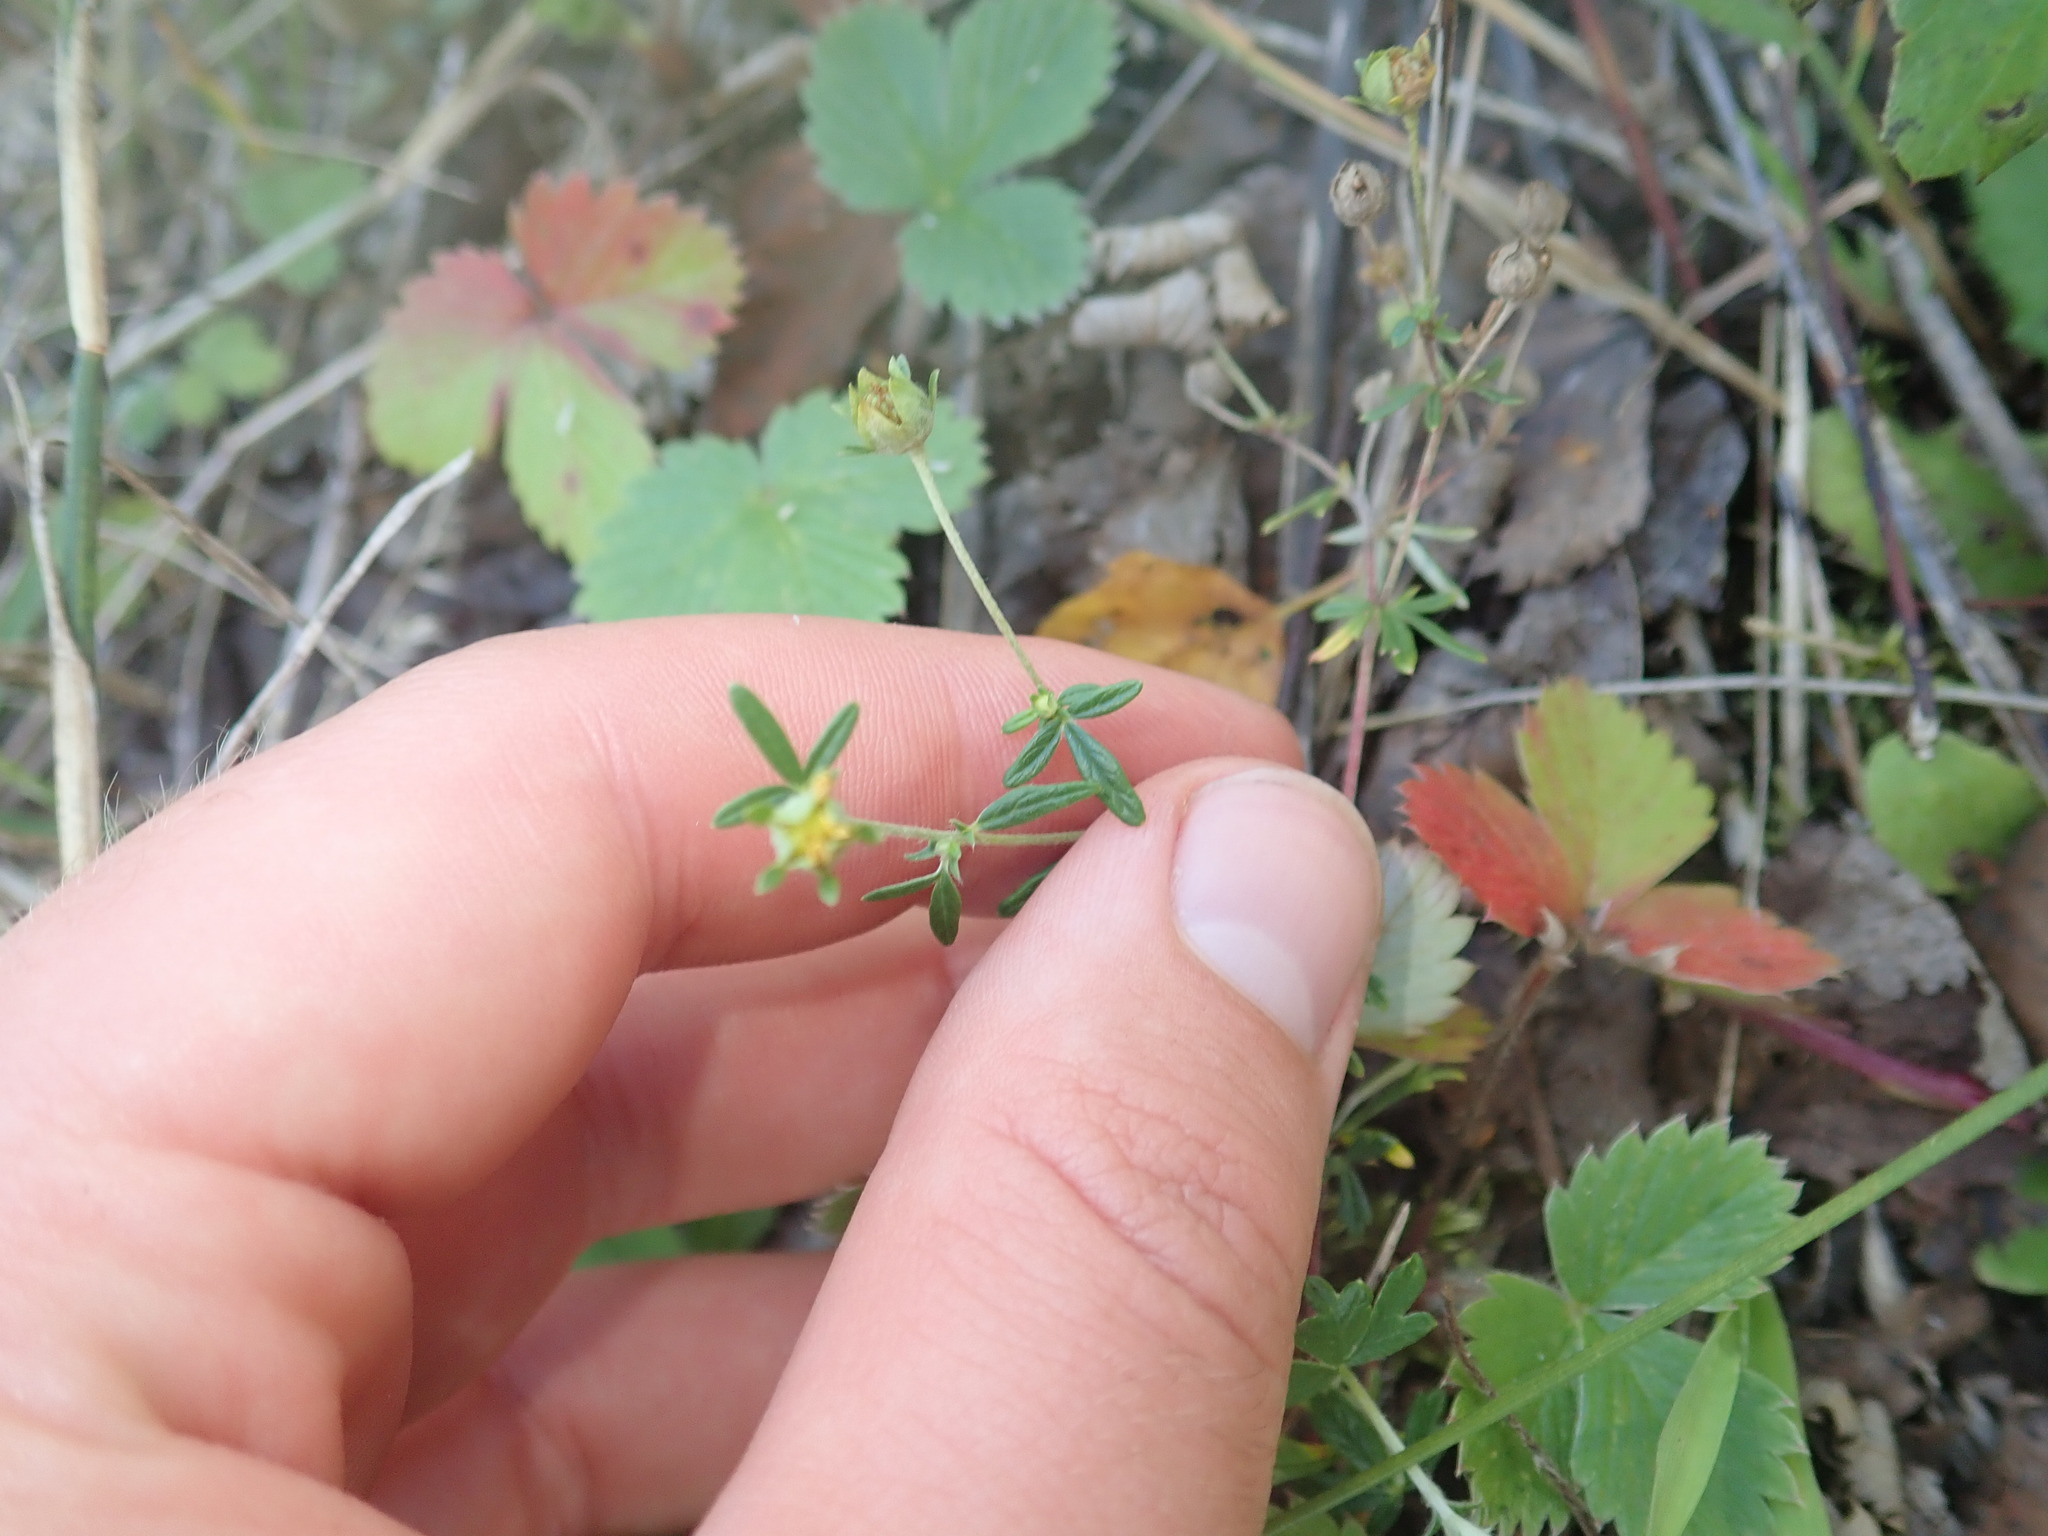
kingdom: Plantae
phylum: Tracheophyta
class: Magnoliopsida
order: Rosales
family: Rosaceae
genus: Potentilla
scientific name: Potentilla argentea
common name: Hoary cinquefoil
